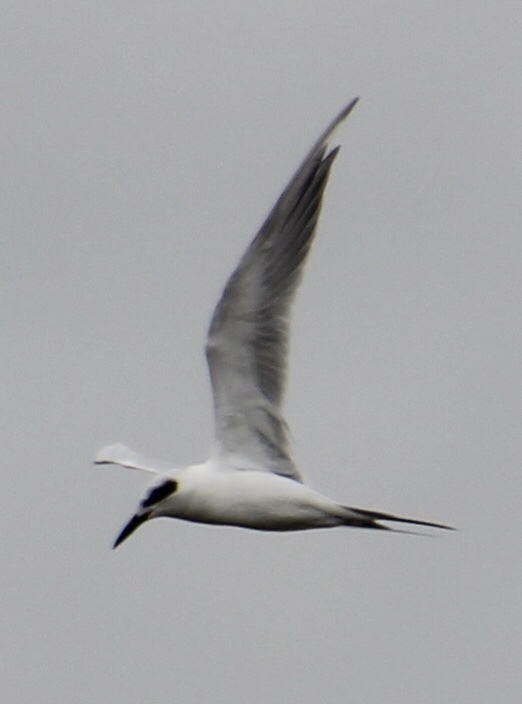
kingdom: Animalia
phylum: Chordata
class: Aves
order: Charadriiformes
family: Laridae
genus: Sterna
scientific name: Sterna forsteri
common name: Forster's tern
